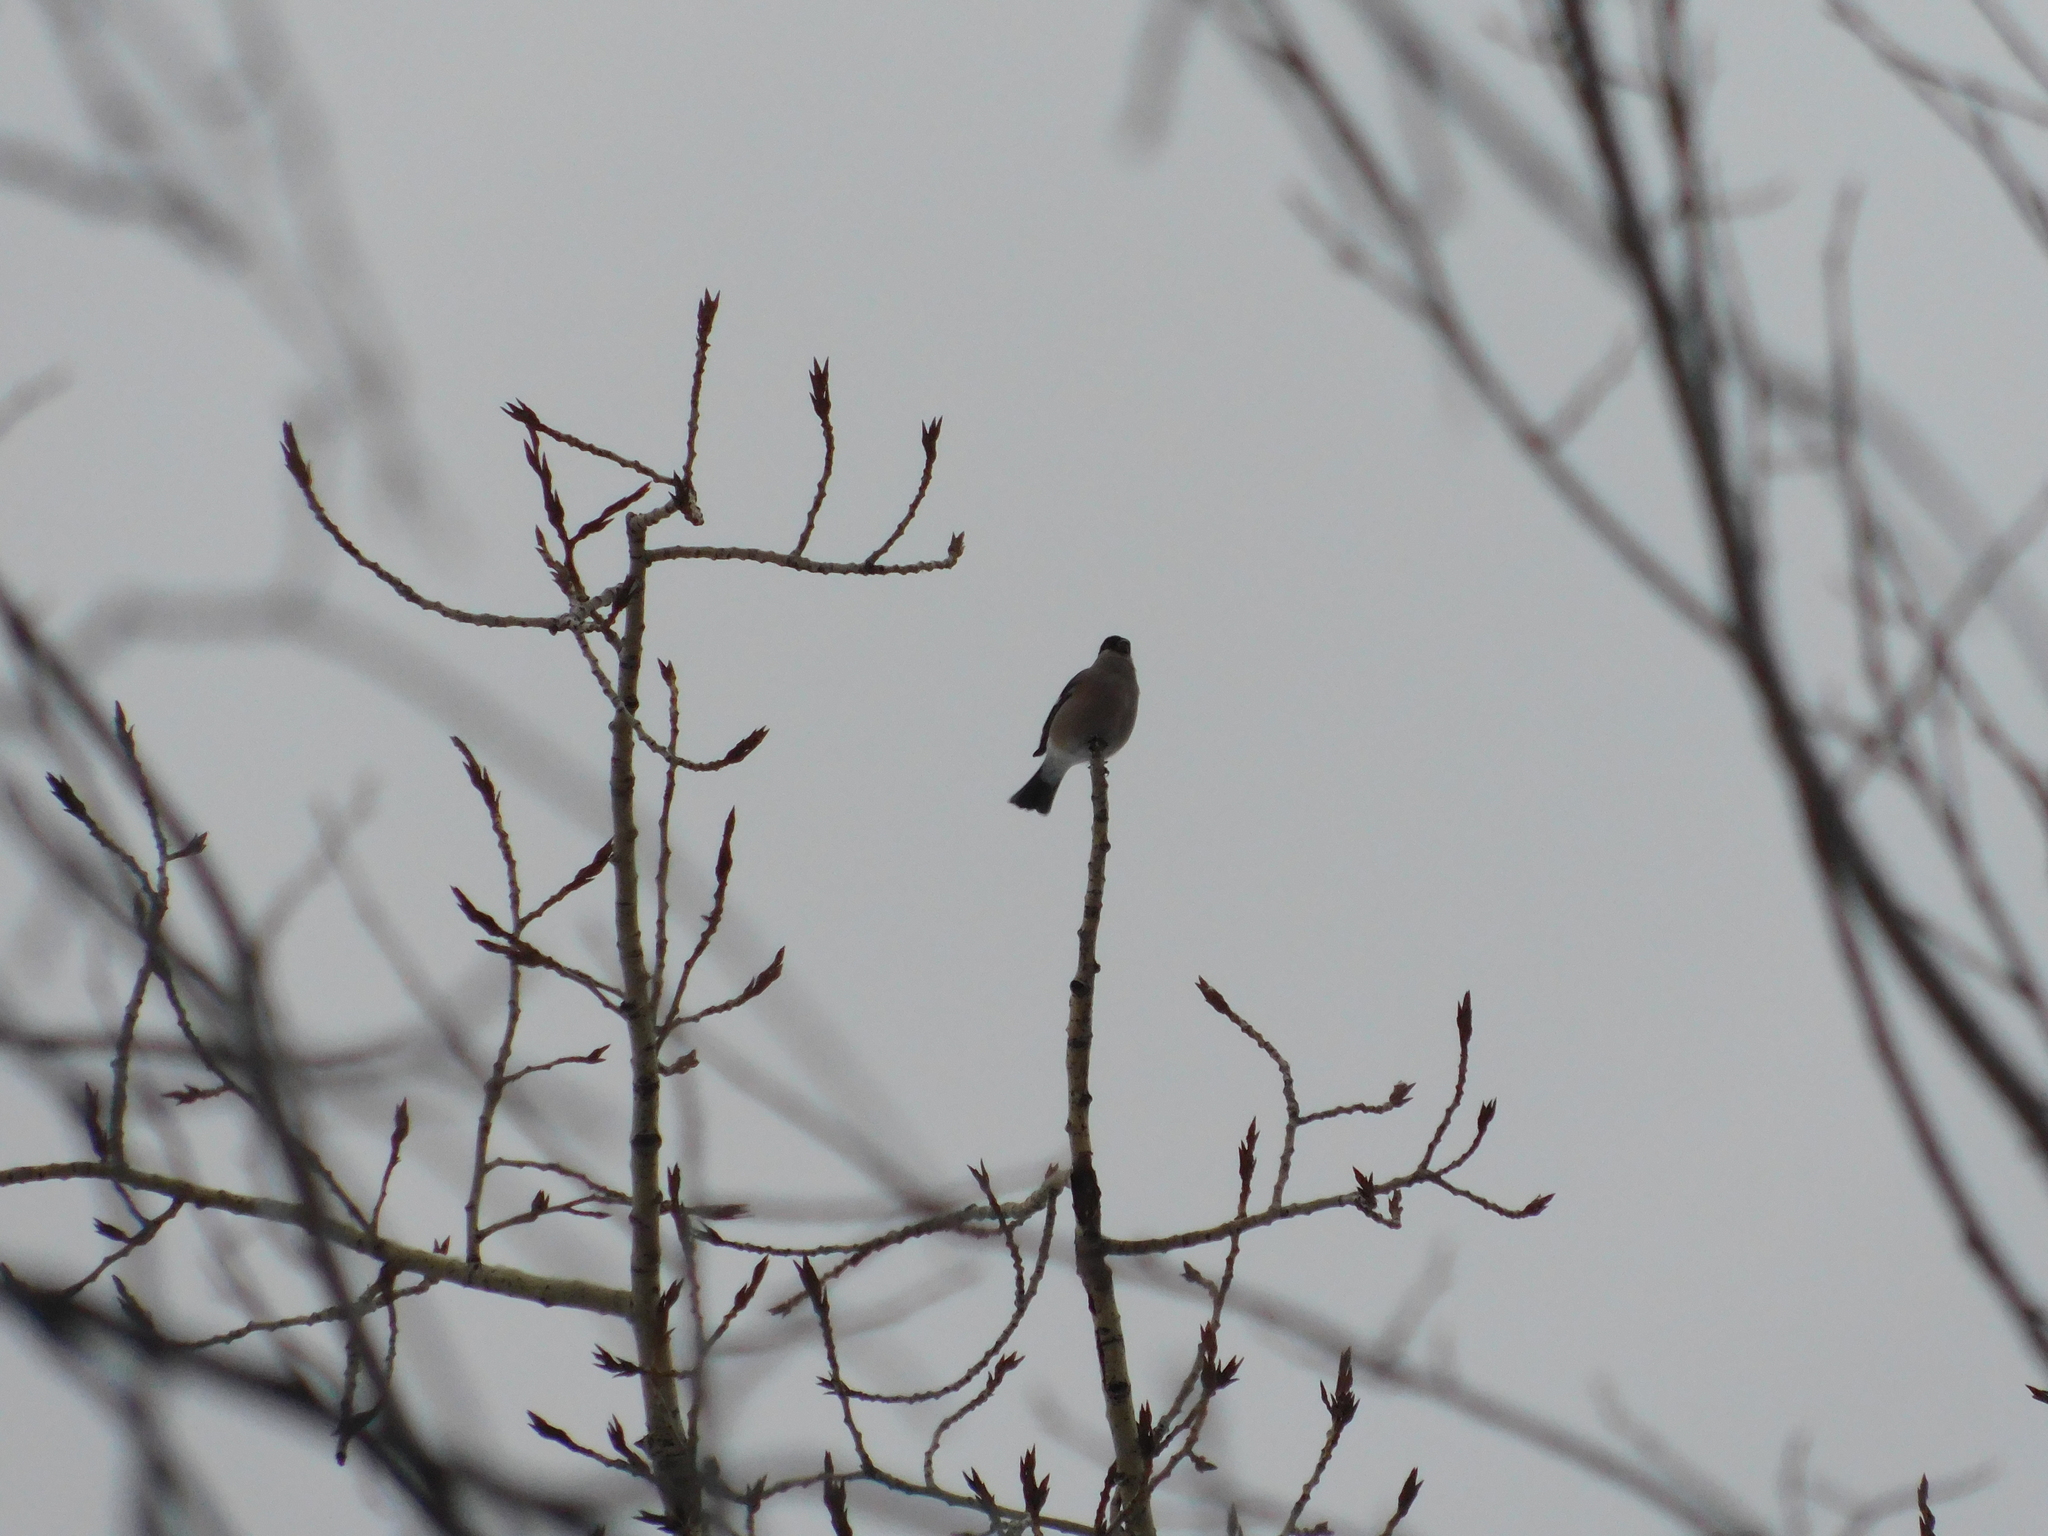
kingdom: Animalia
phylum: Chordata
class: Aves
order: Passeriformes
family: Fringillidae
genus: Pyrrhula
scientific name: Pyrrhula pyrrhula
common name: Eurasian bullfinch
